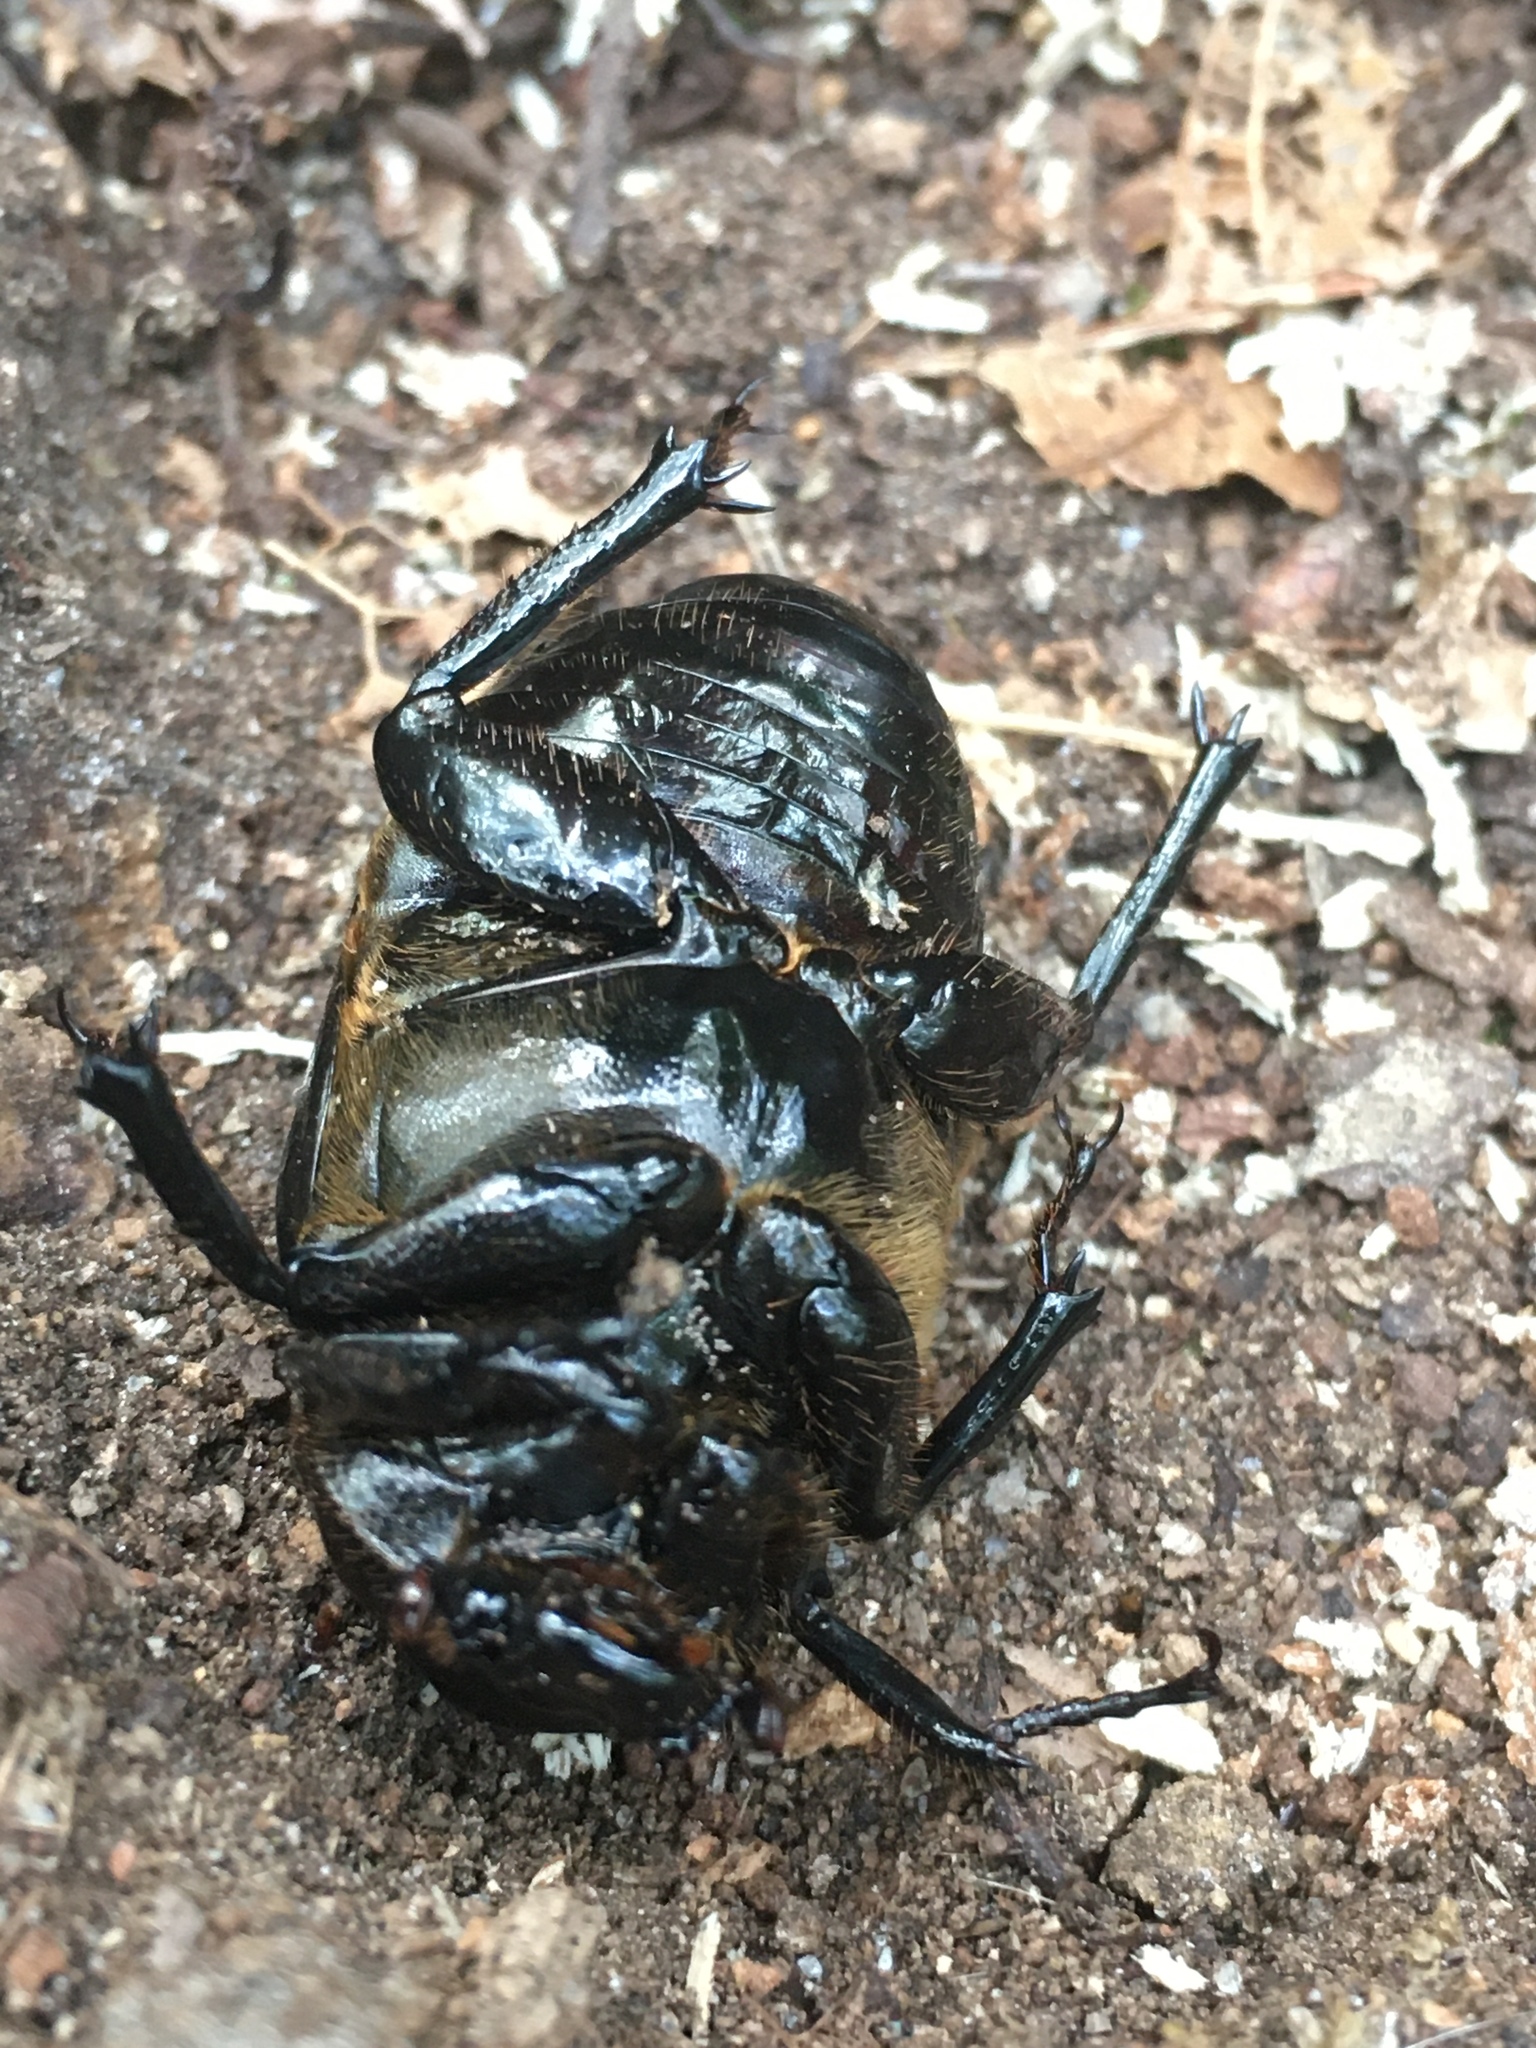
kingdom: Animalia
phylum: Arthropoda
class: Insecta
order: Coleoptera
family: Scarabaeidae
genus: Osmoderma
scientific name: Osmoderma eremicola
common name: Hermit flower beetle
